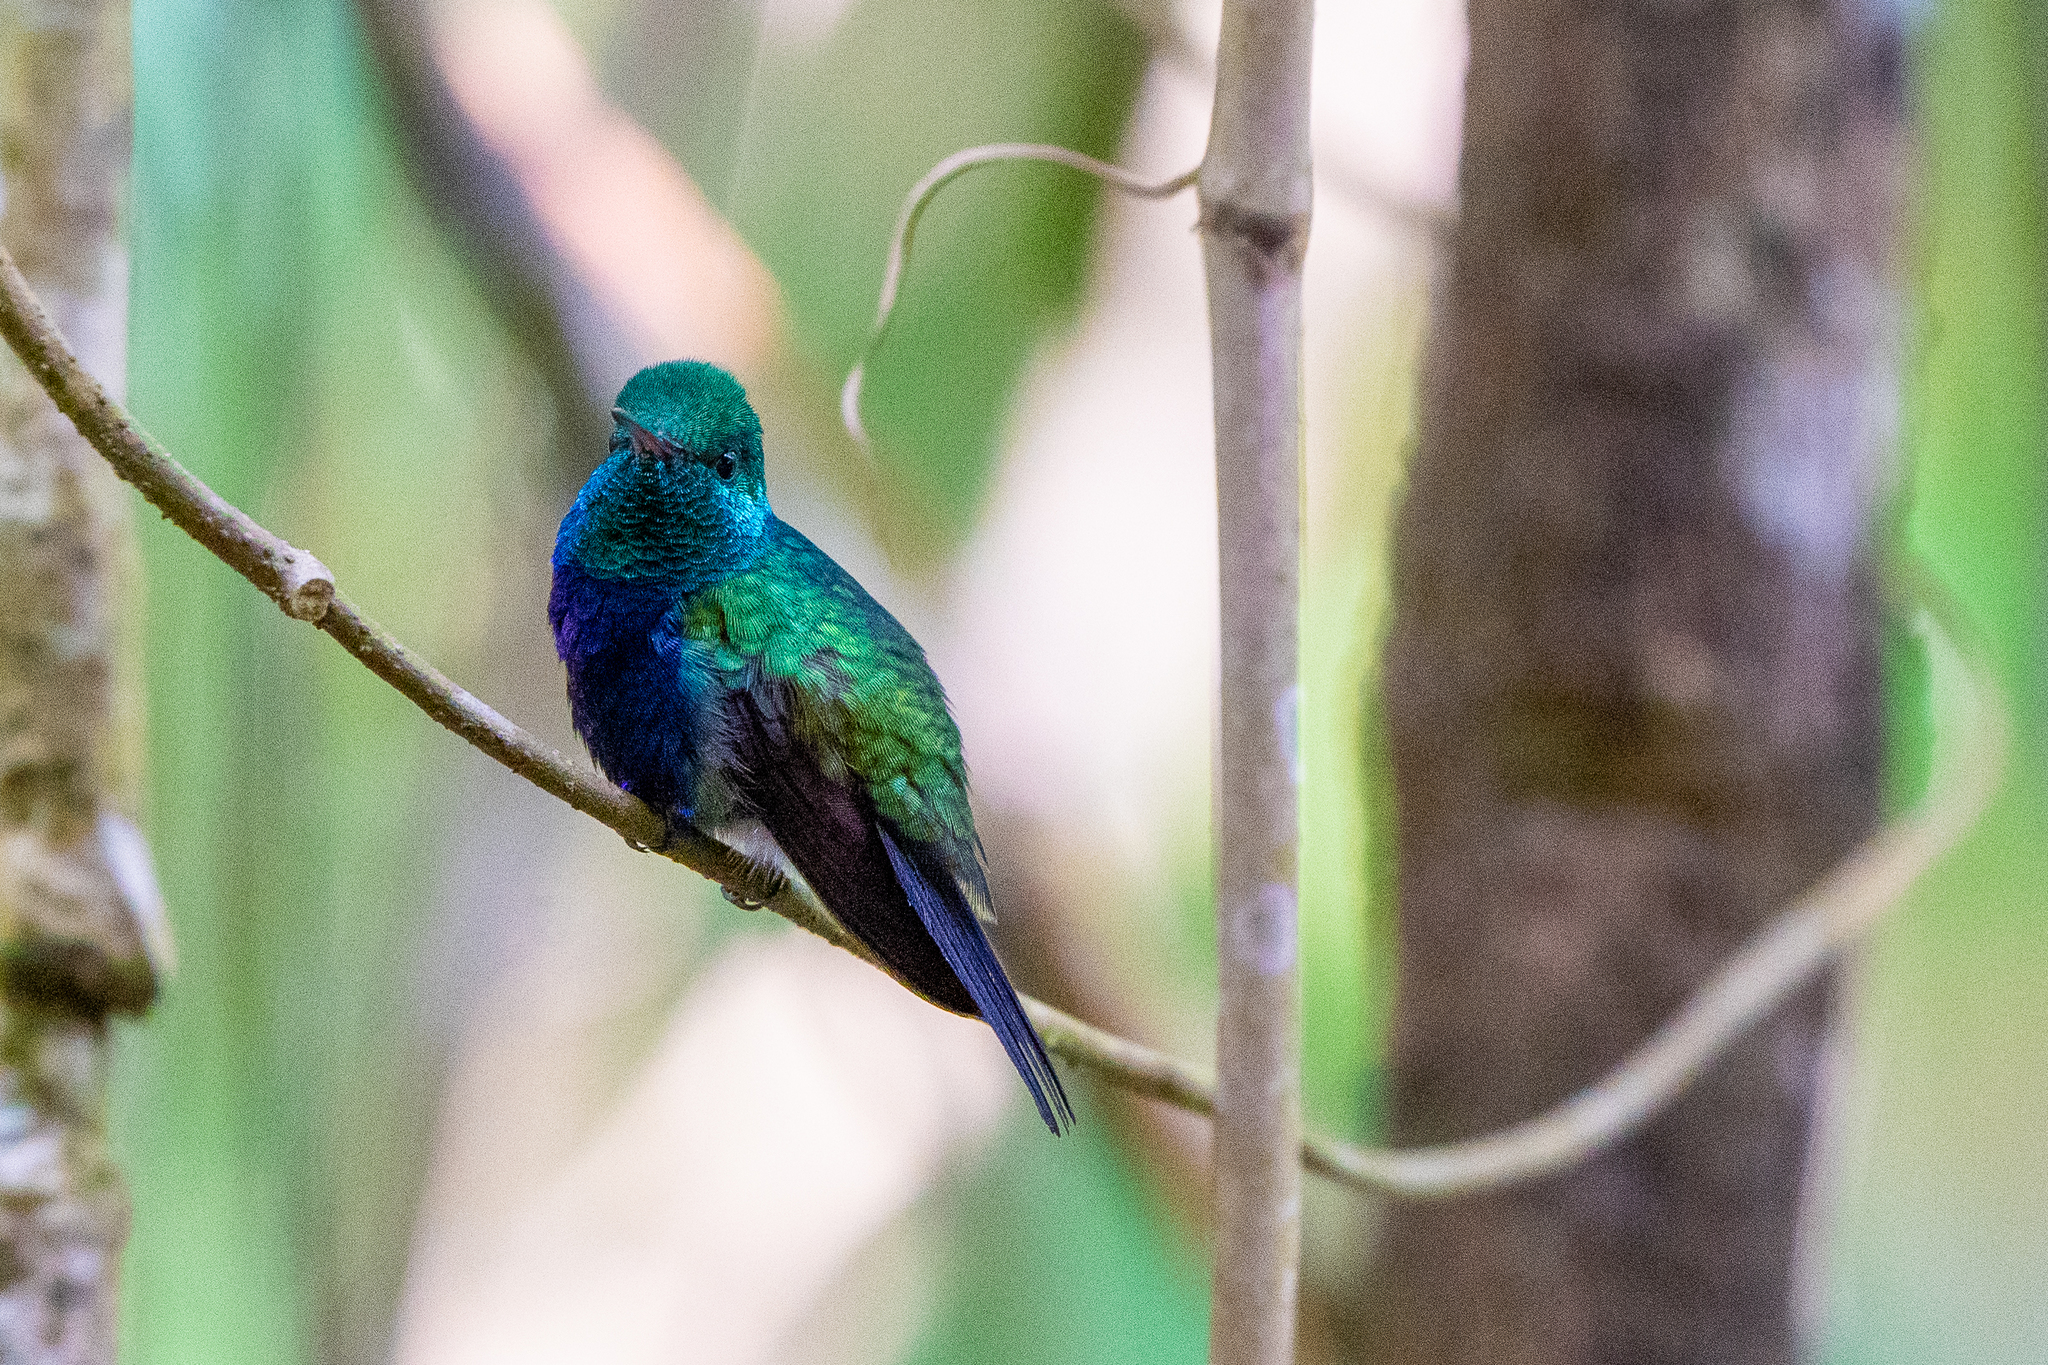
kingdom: Animalia
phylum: Chordata
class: Aves
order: Apodiformes
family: Trochilidae
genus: Chlorestes
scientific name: Chlorestes julie
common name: Violet-bellied hummingbird
